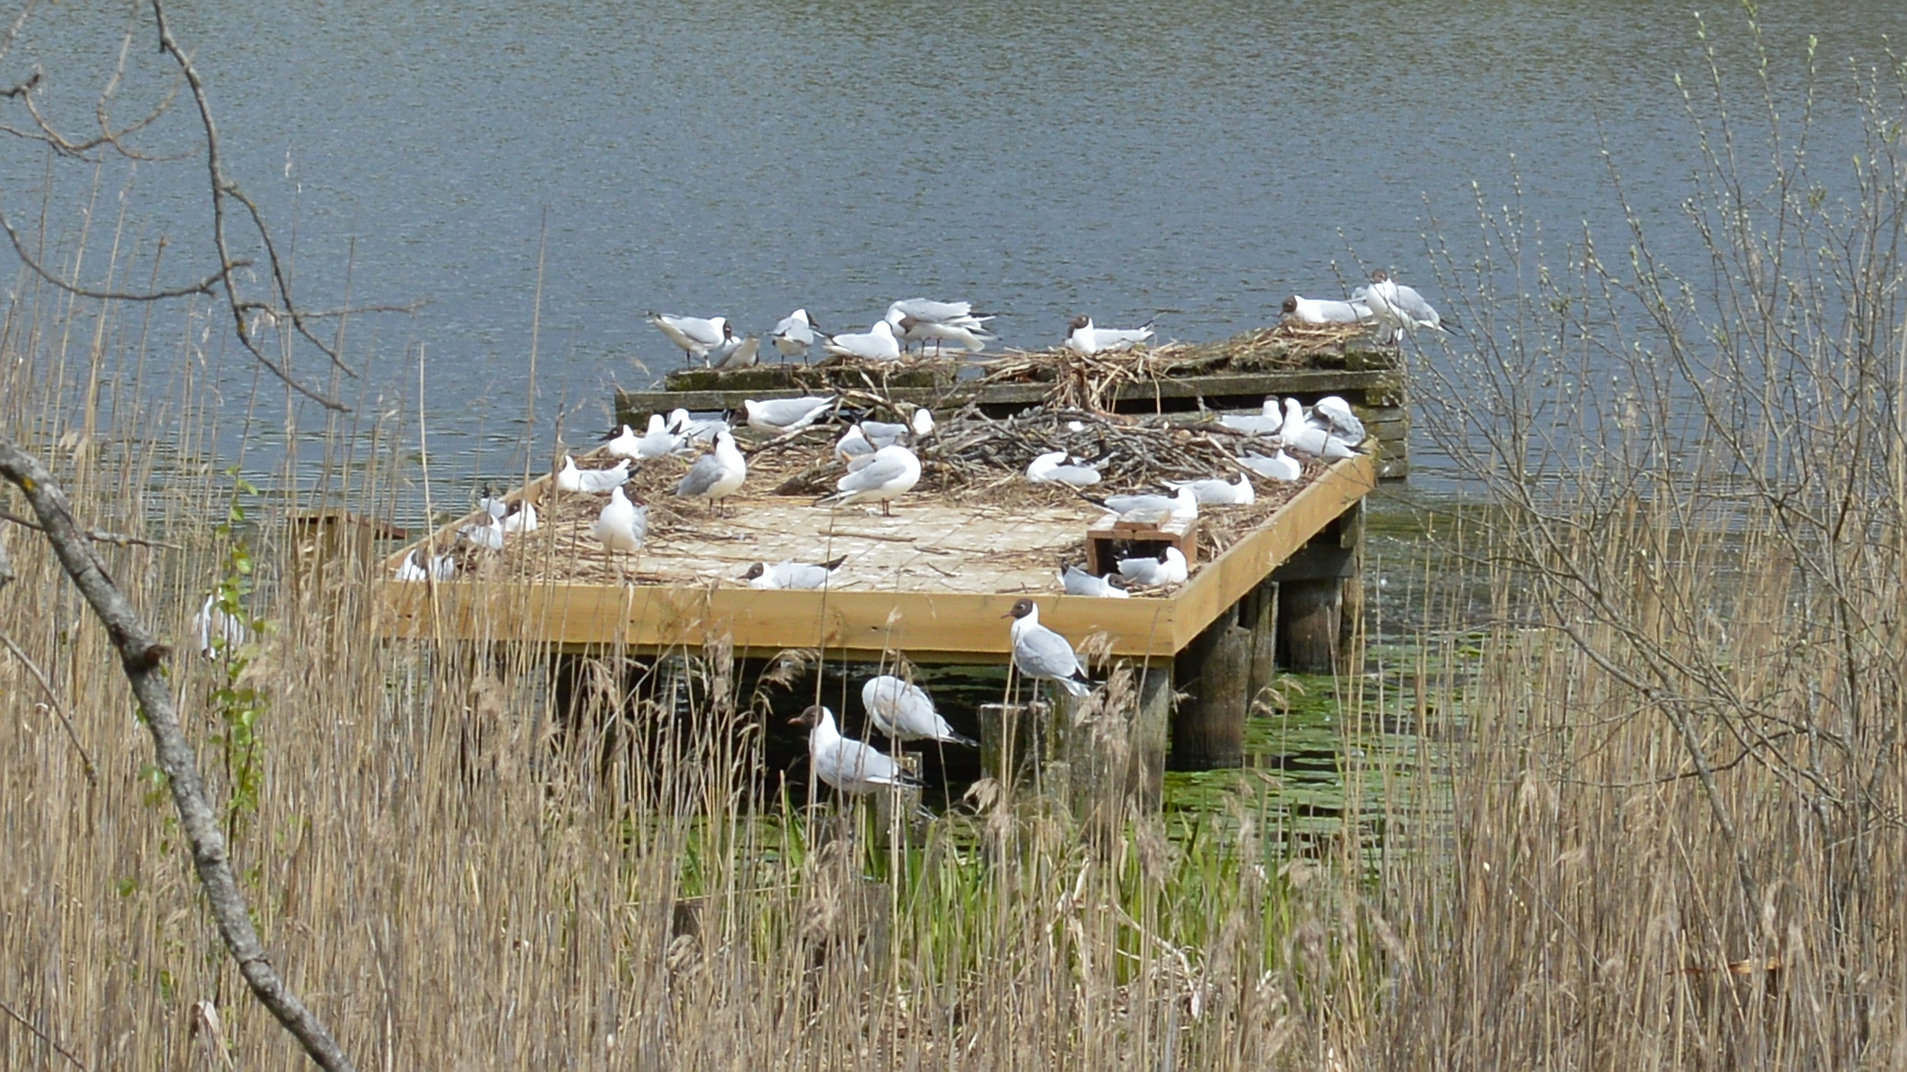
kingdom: Animalia
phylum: Chordata
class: Aves
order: Charadriiformes
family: Laridae
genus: Chroicocephalus
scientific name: Chroicocephalus ridibundus
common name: Black-headed gull
